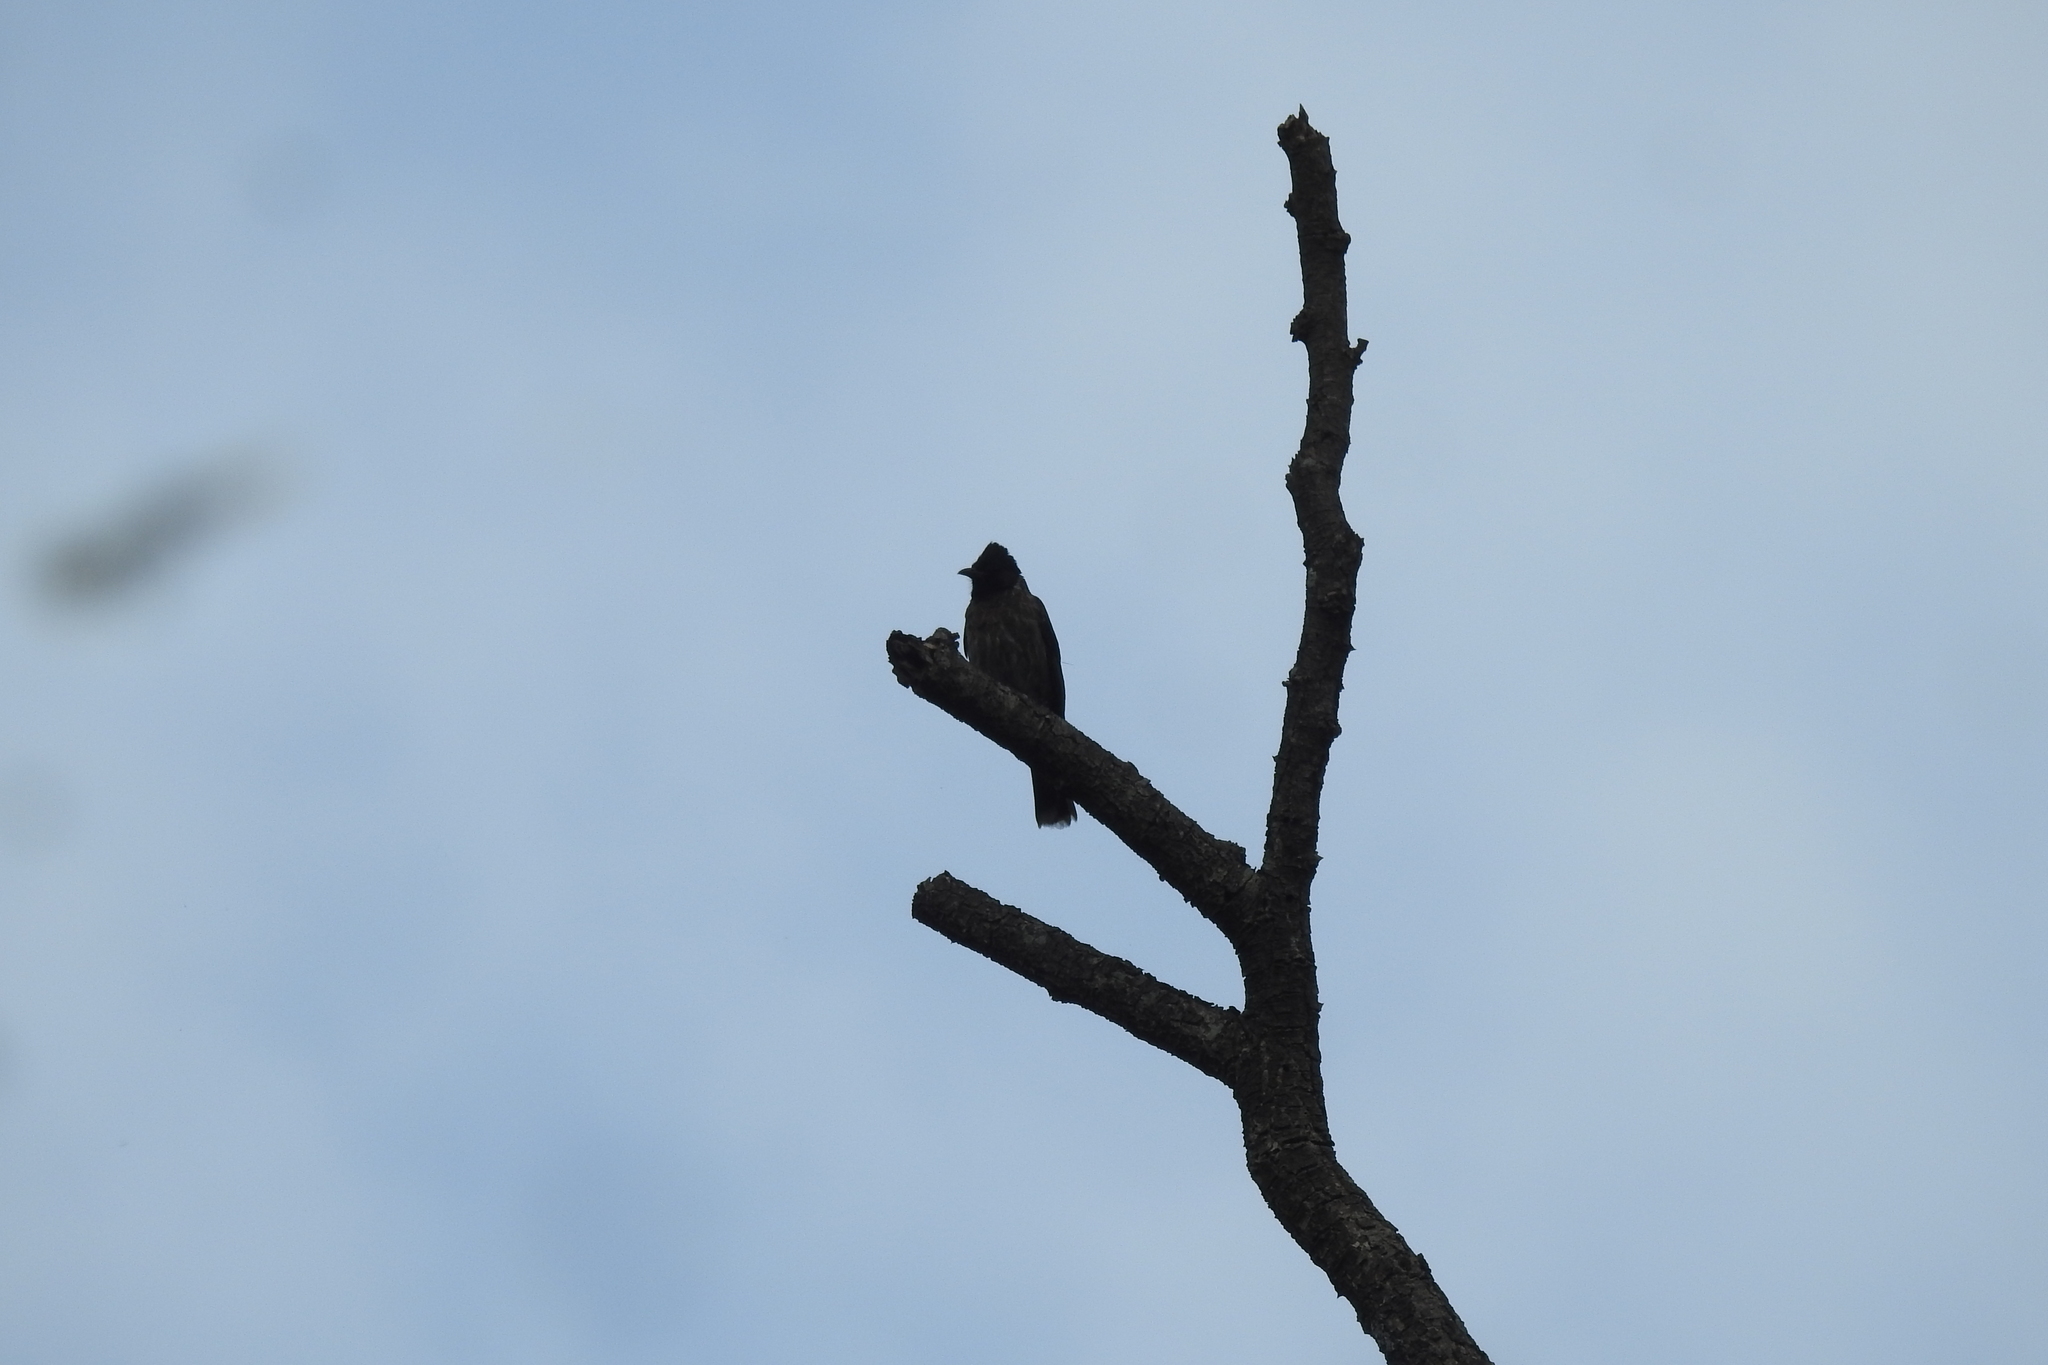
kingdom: Animalia
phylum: Chordata
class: Aves
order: Passeriformes
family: Pycnonotidae
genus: Pycnonotus
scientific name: Pycnonotus cafer
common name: Red-vented bulbul
